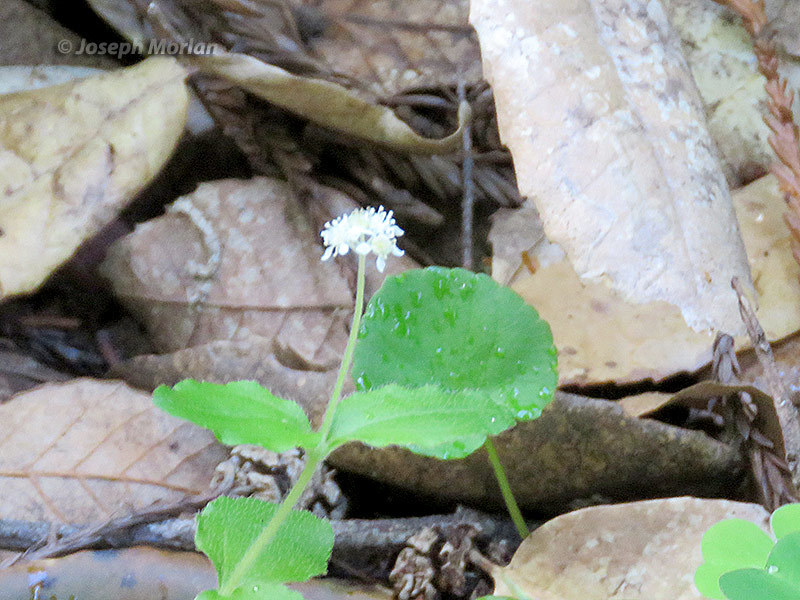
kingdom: Plantae
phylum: Tracheophyta
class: Magnoliopsida
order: Cornales
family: Hydrangeaceae
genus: Whipplea
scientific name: Whipplea modesta
